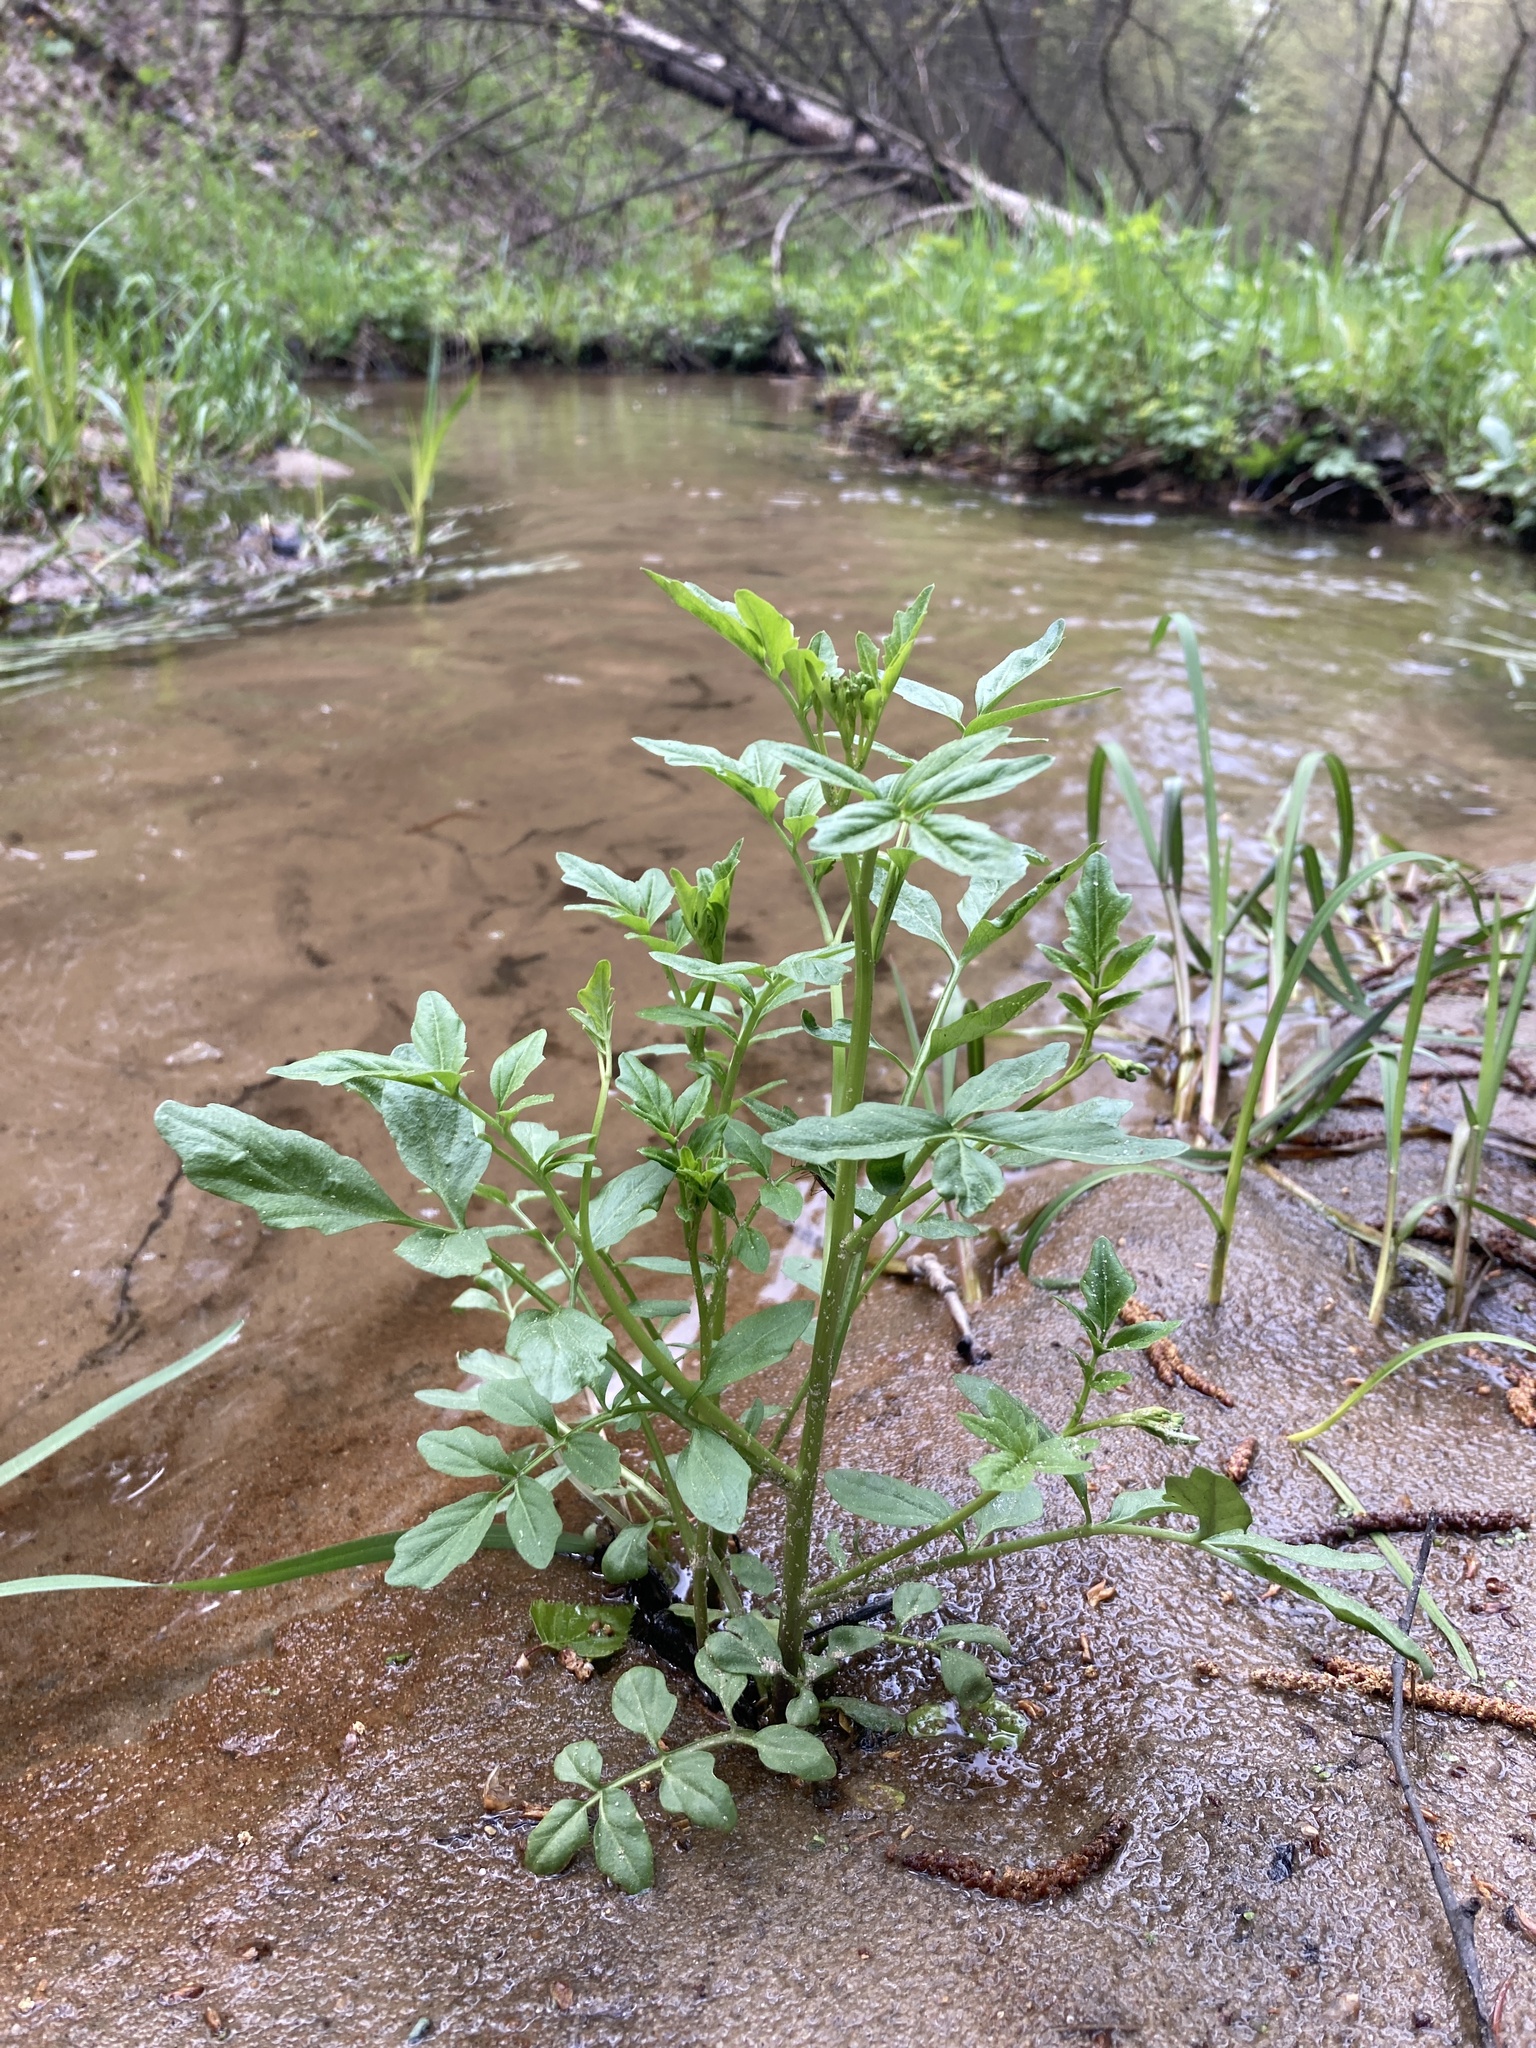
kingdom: Plantae
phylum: Tracheophyta
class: Magnoliopsida
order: Brassicales
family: Brassicaceae
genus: Cardamine
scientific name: Cardamine amara
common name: Large bitter-cress
